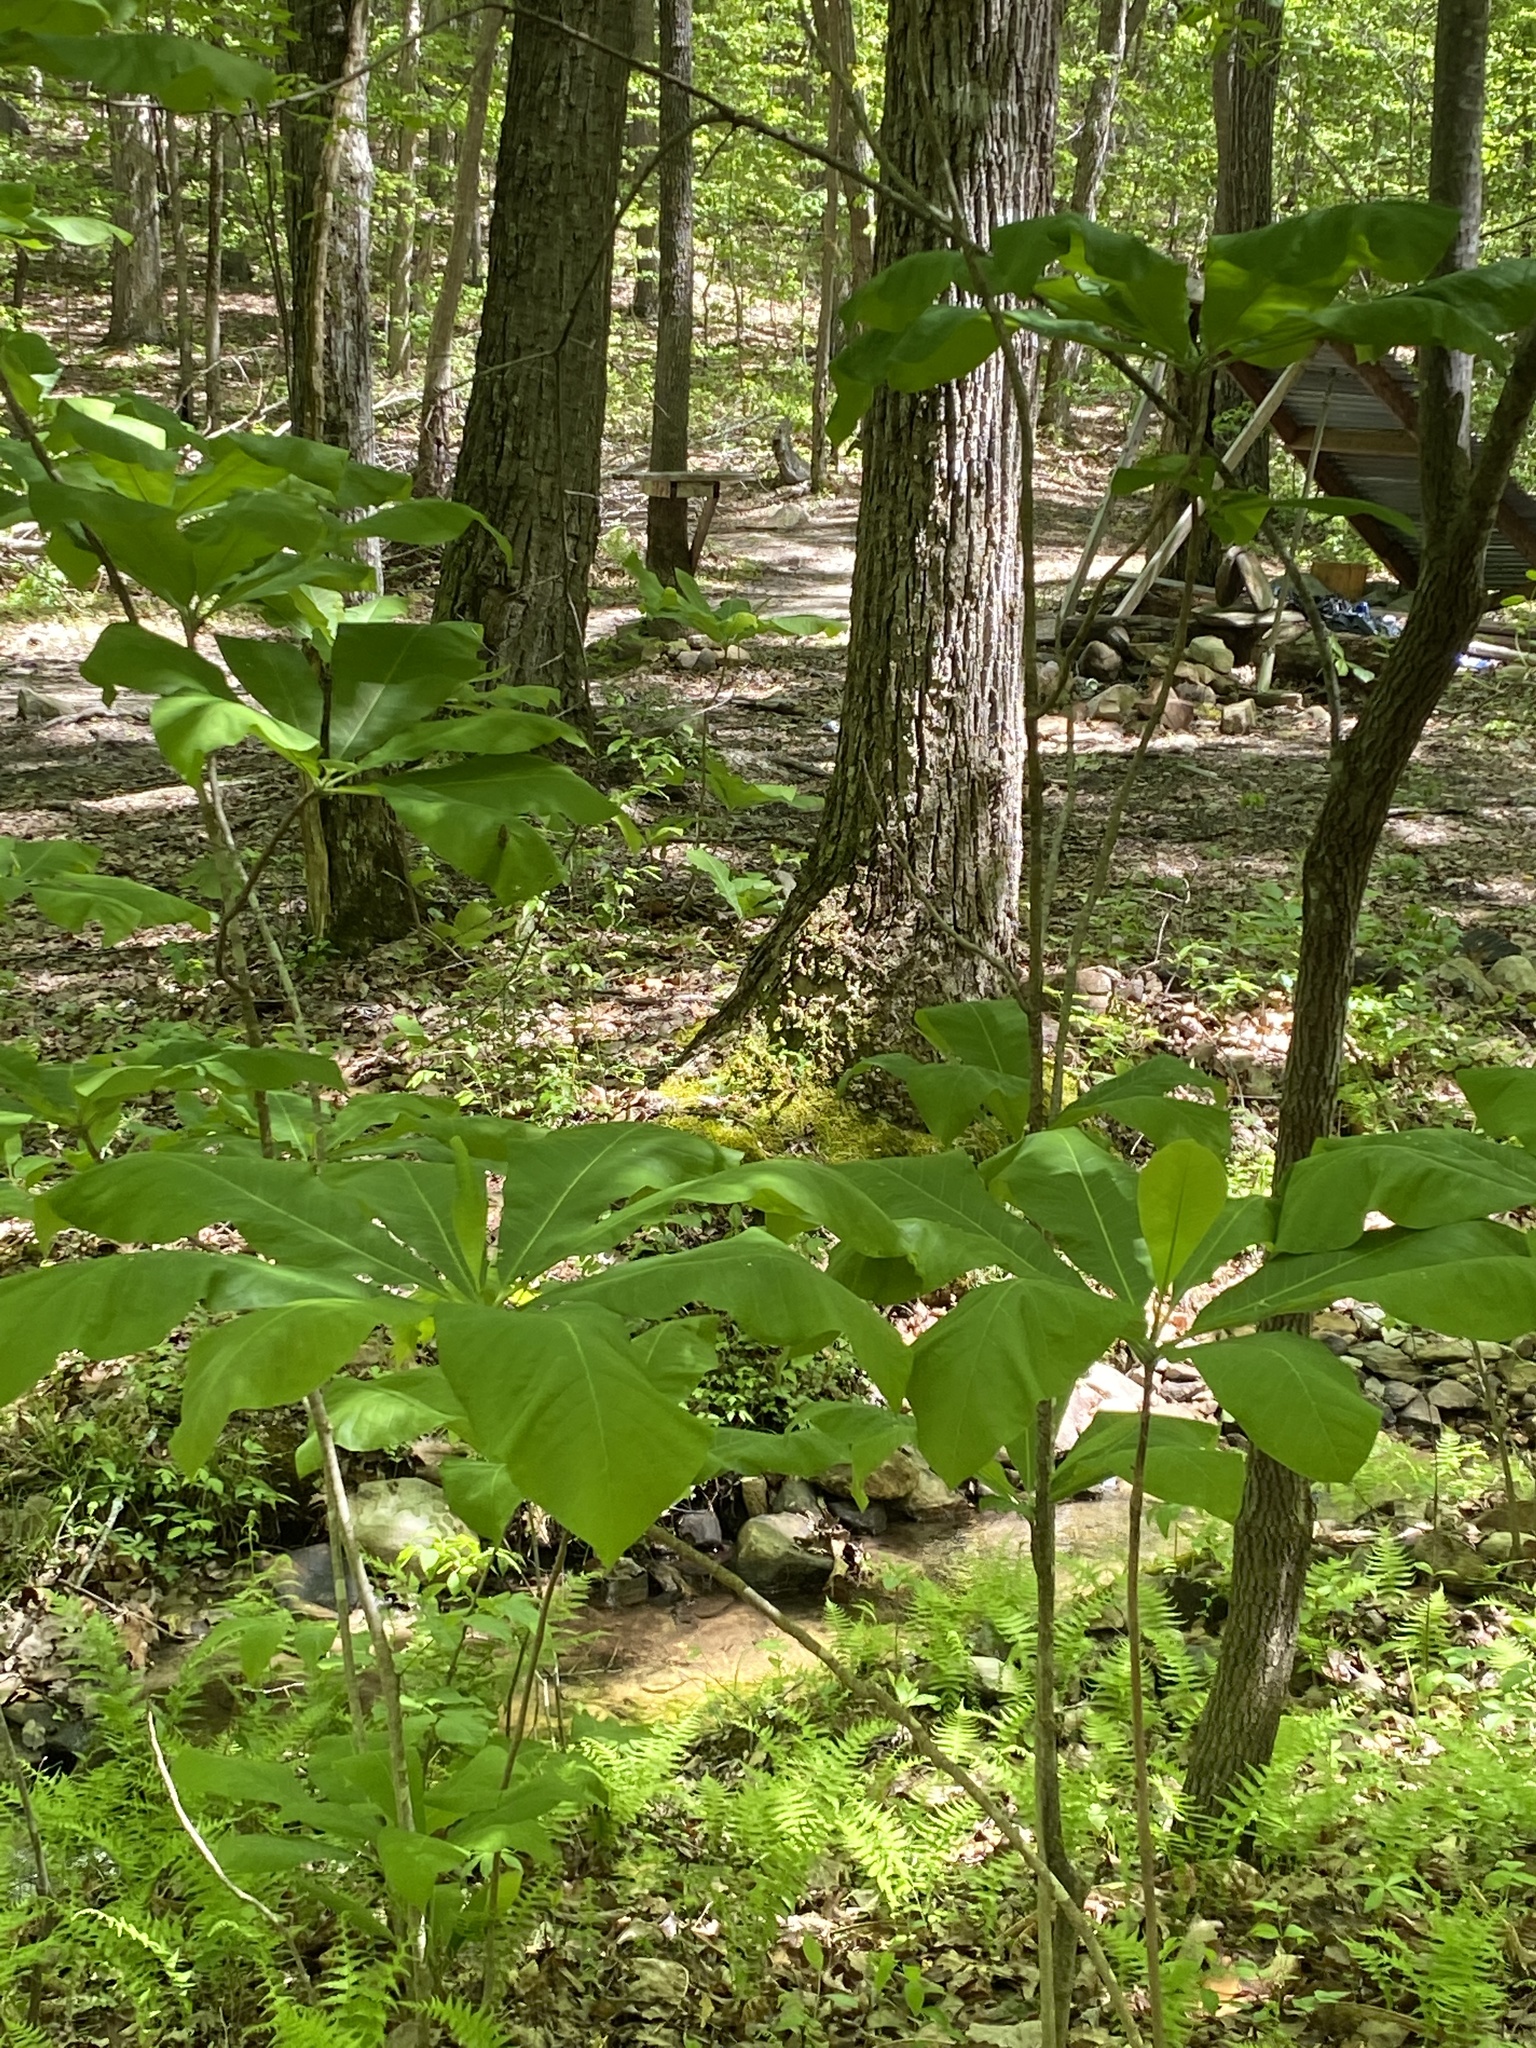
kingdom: Plantae
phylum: Tracheophyta
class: Magnoliopsida
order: Magnoliales
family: Magnoliaceae
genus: Magnolia
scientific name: Magnolia tripetala
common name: Umbrella magnolia
